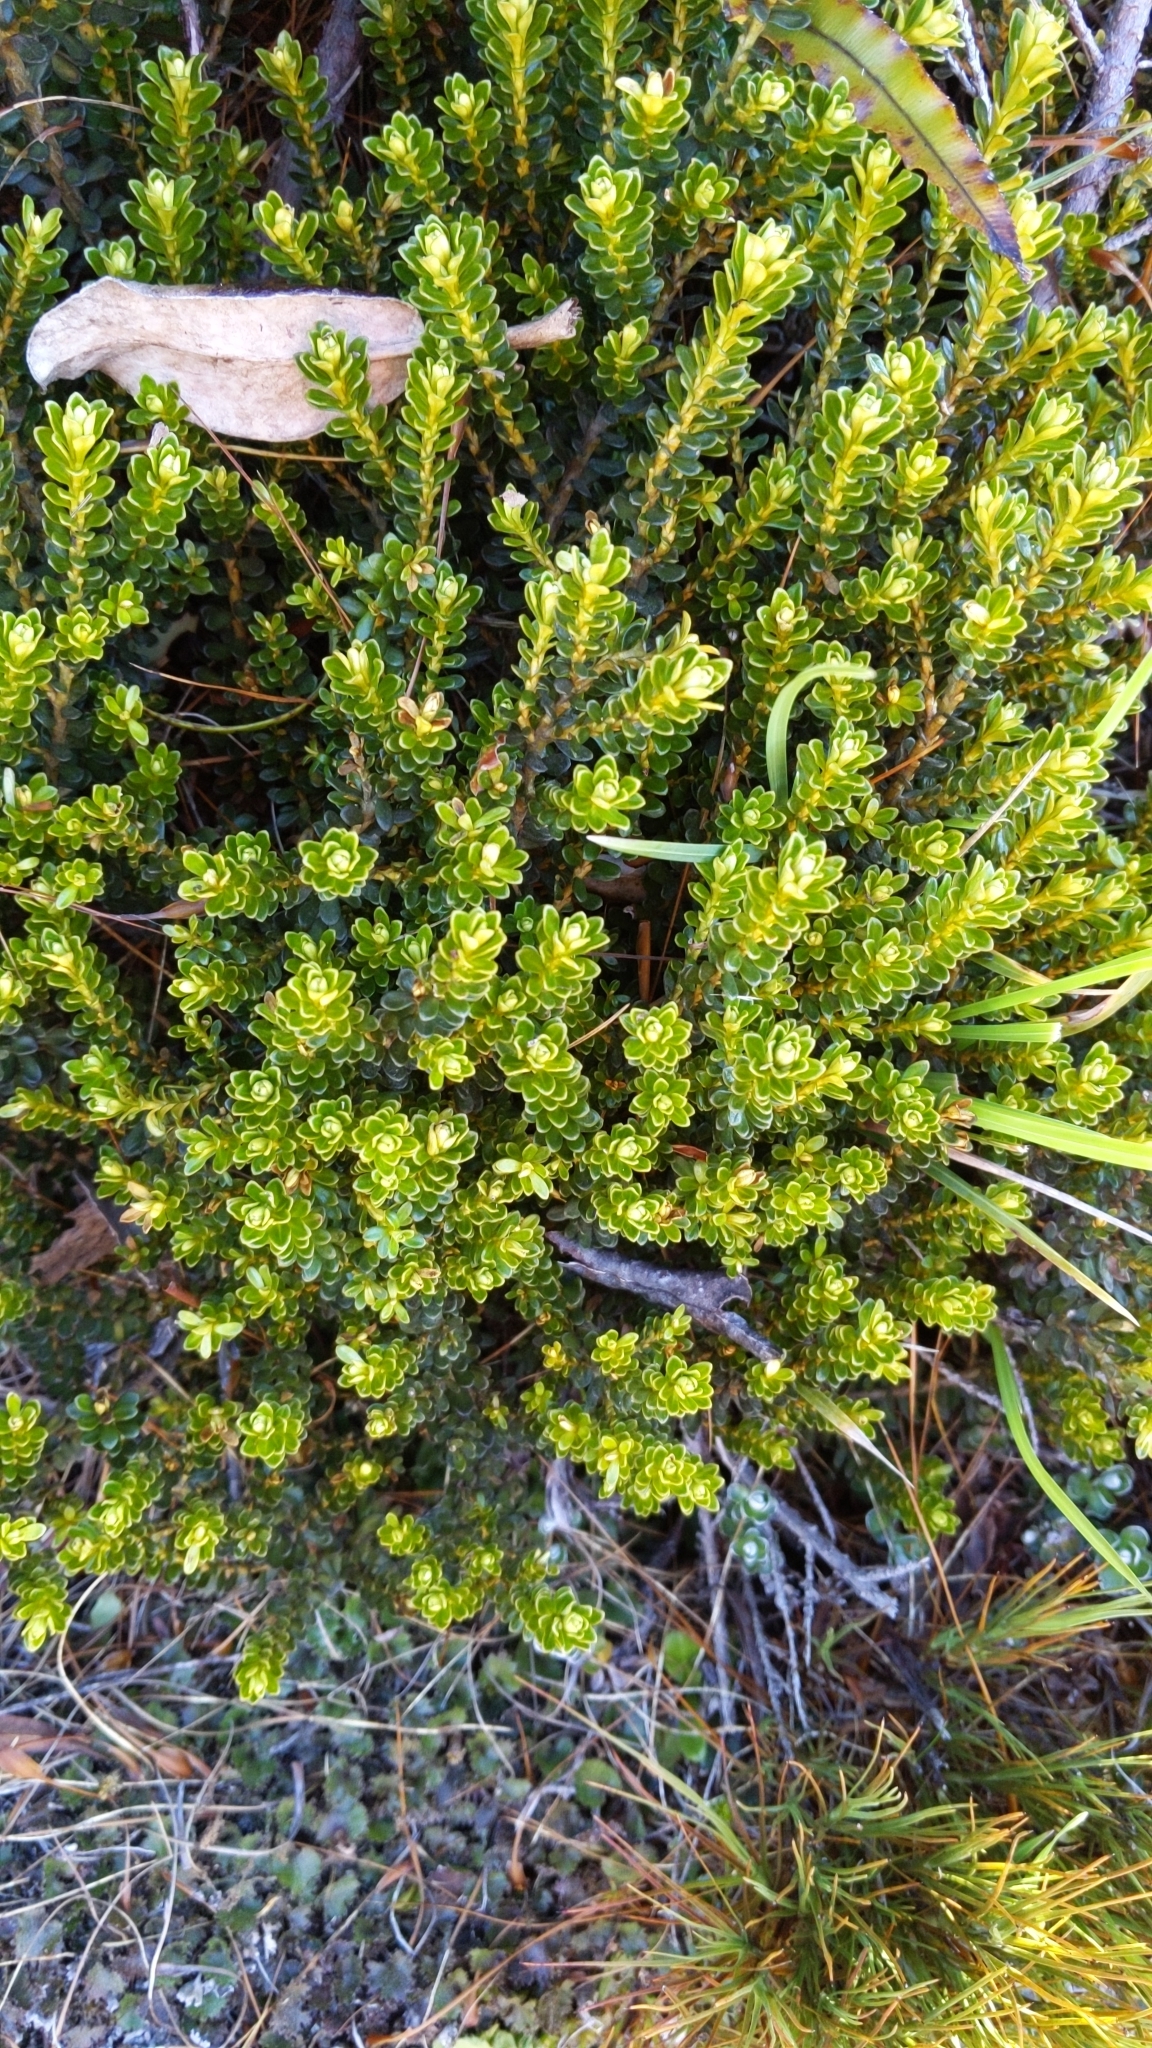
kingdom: Plantae
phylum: Tracheophyta
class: Magnoliopsida
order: Asterales
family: Asteraceae
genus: Ozothamnus
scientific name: Ozothamnus leptophyllus
